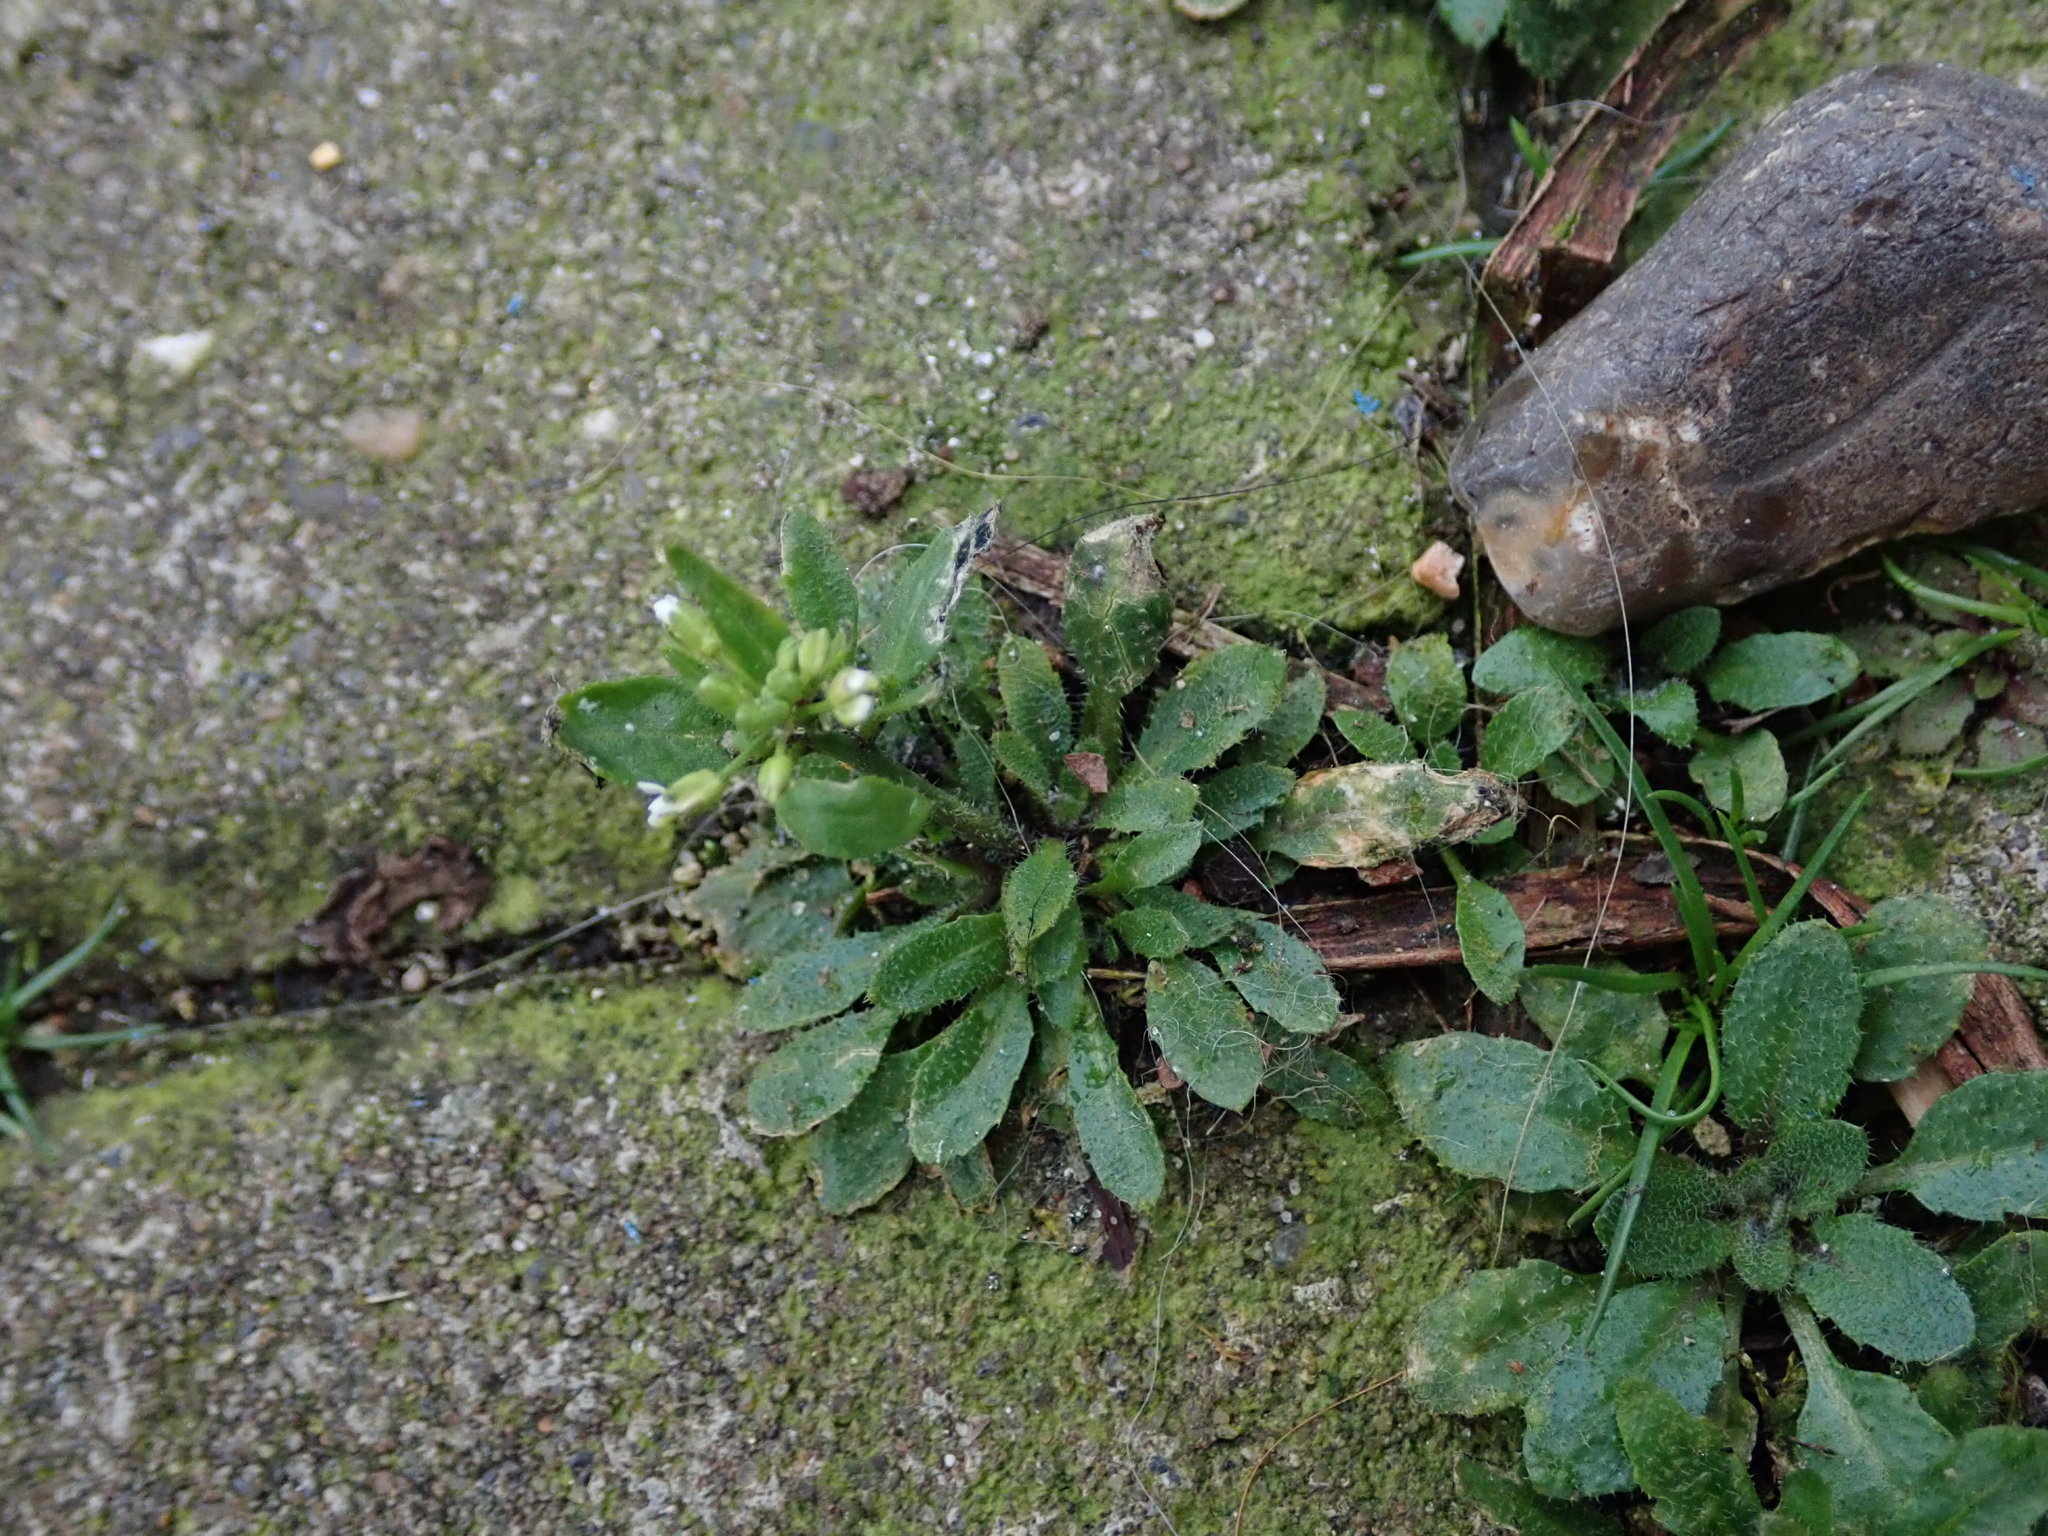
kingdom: Plantae
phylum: Tracheophyta
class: Magnoliopsida
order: Brassicales
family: Brassicaceae
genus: Arabidopsis
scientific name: Arabidopsis thaliana
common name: Thale cress
